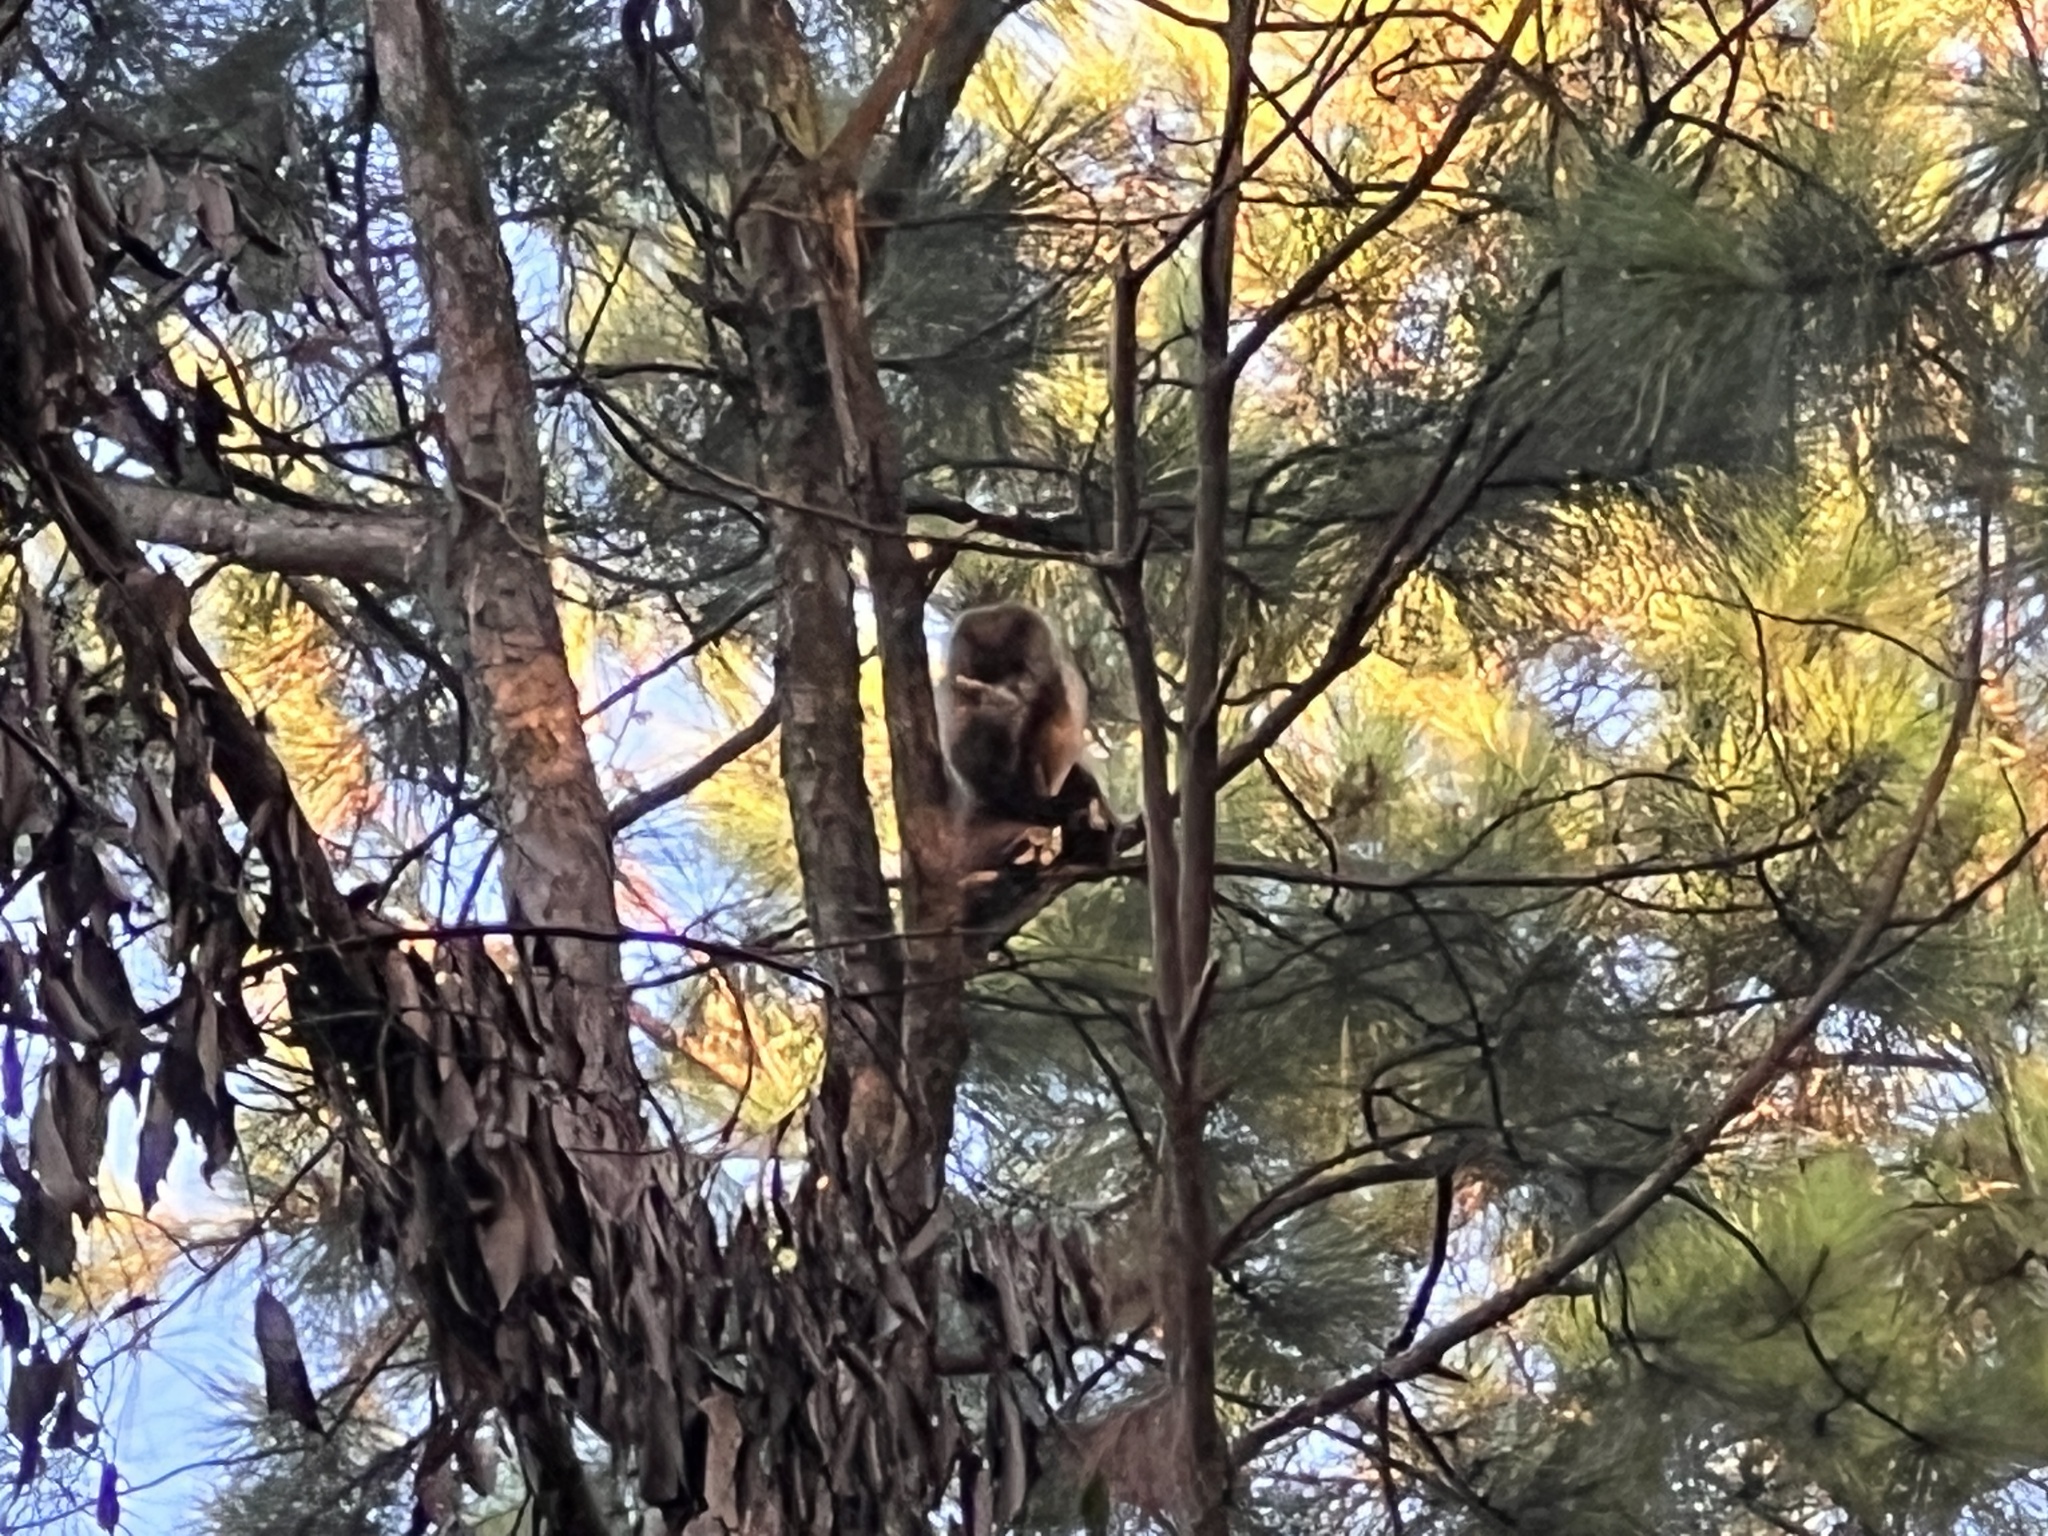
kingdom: Animalia
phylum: Chordata
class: Mammalia
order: Primates
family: Cebidae
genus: Sapajus
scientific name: Sapajus cay
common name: Hooded capuchin
